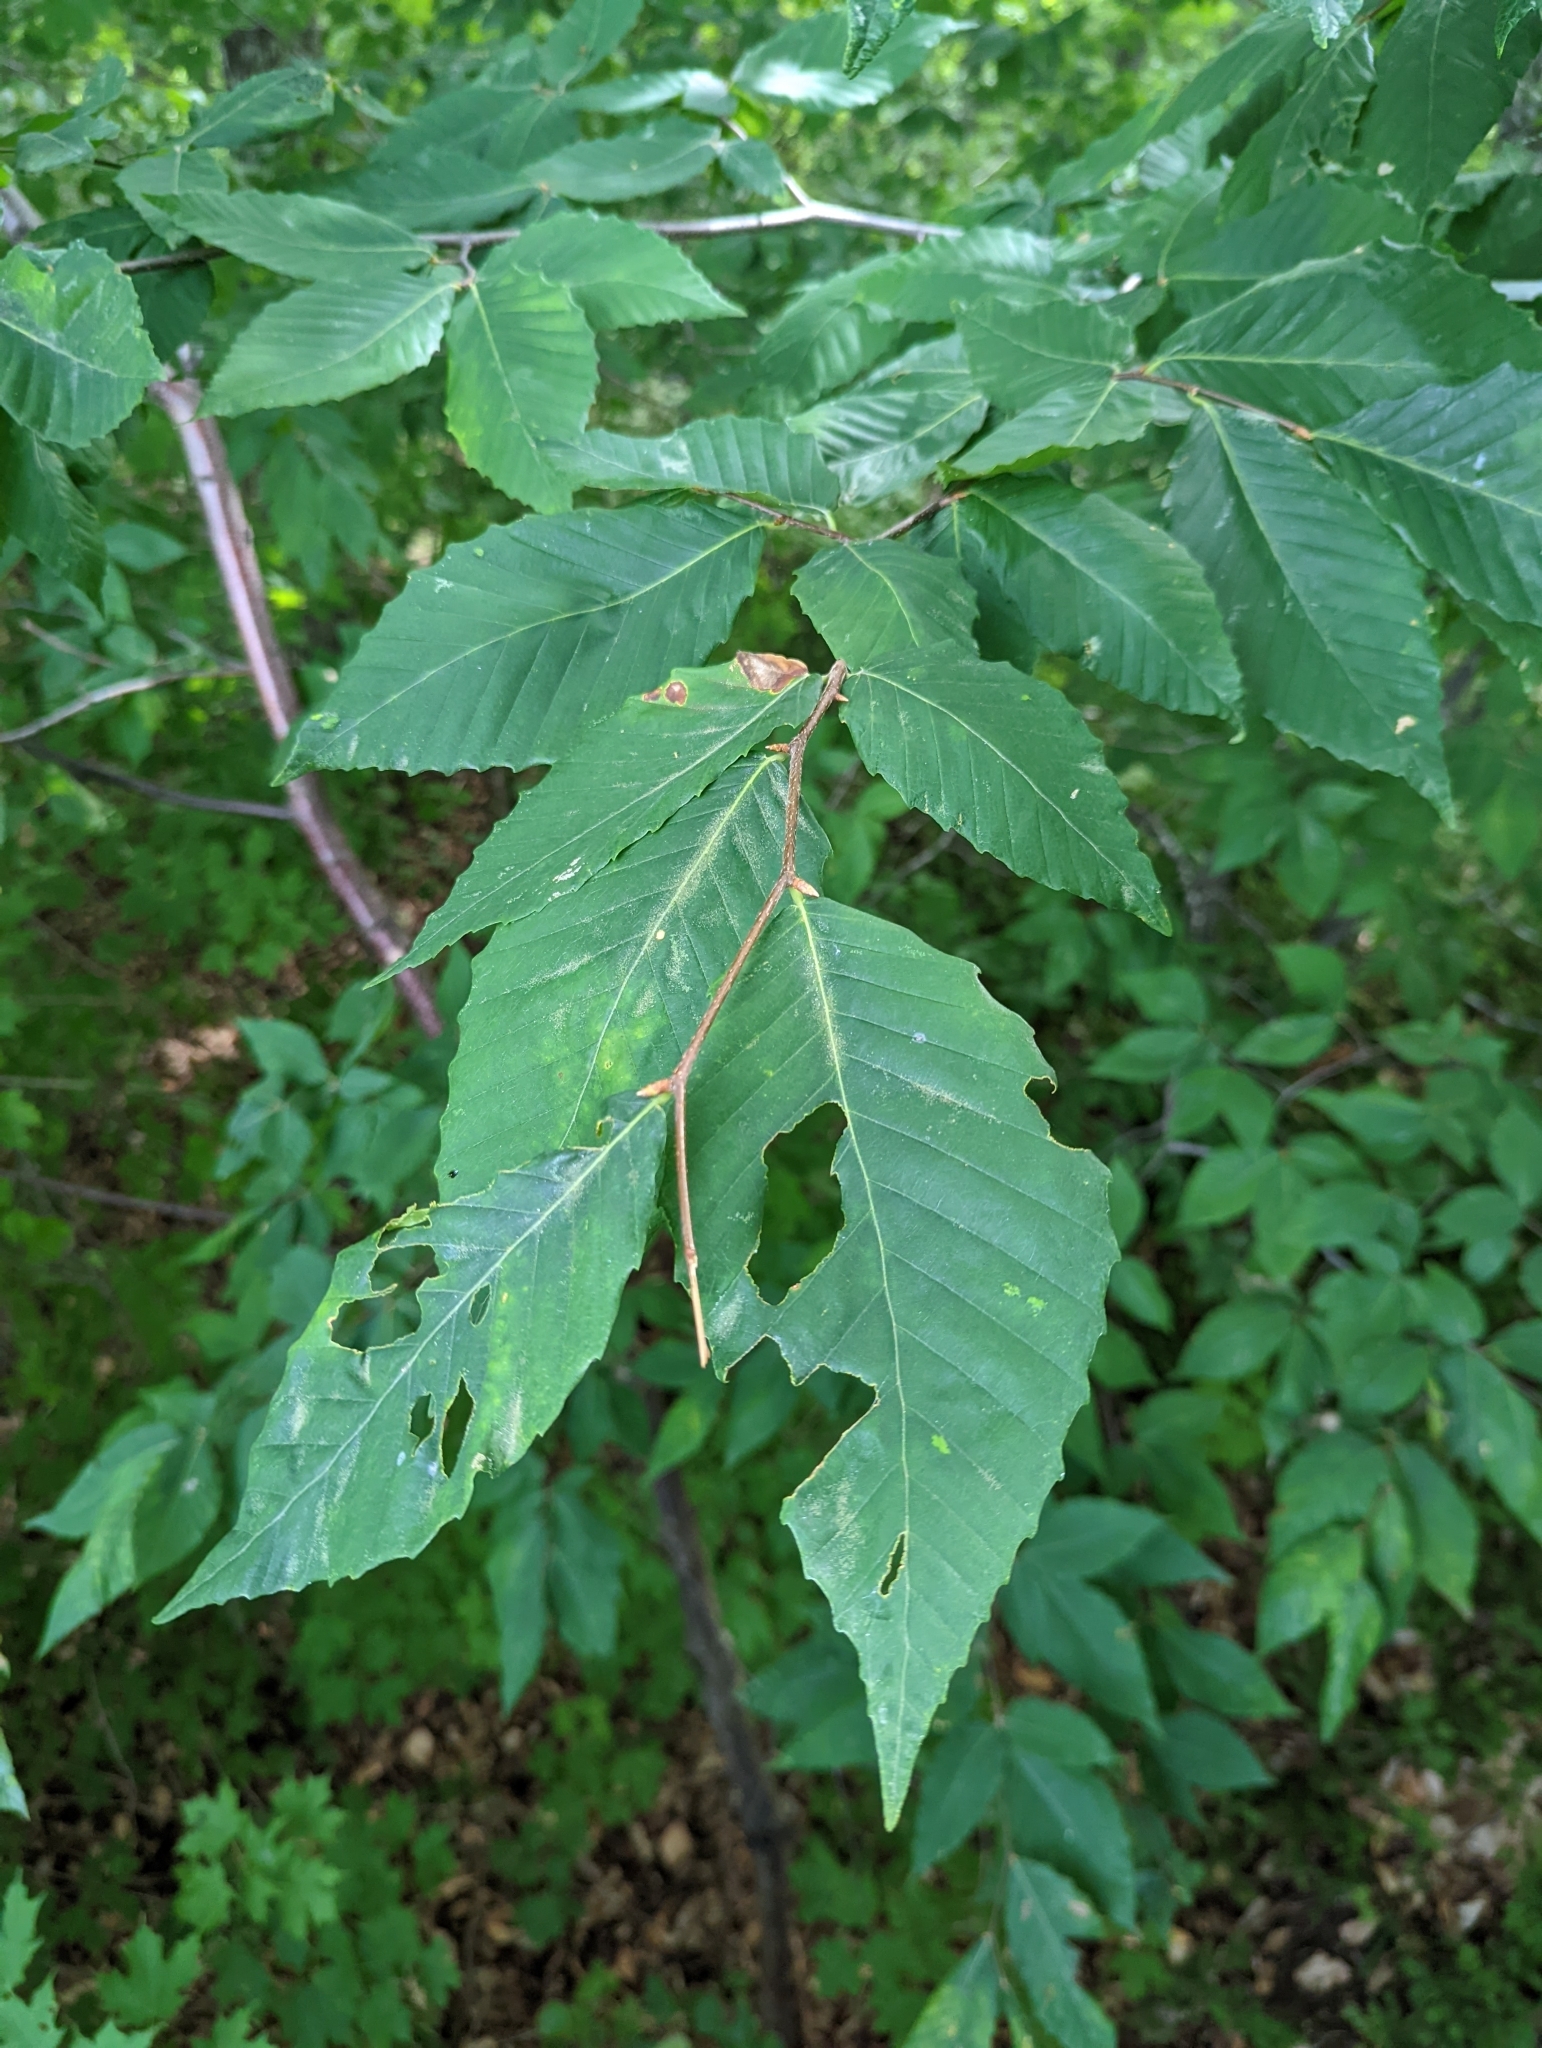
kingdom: Plantae
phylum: Tracheophyta
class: Magnoliopsida
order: Fagales
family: Fagaceae
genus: Fagus
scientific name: Fagus grandifolia
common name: American beech
